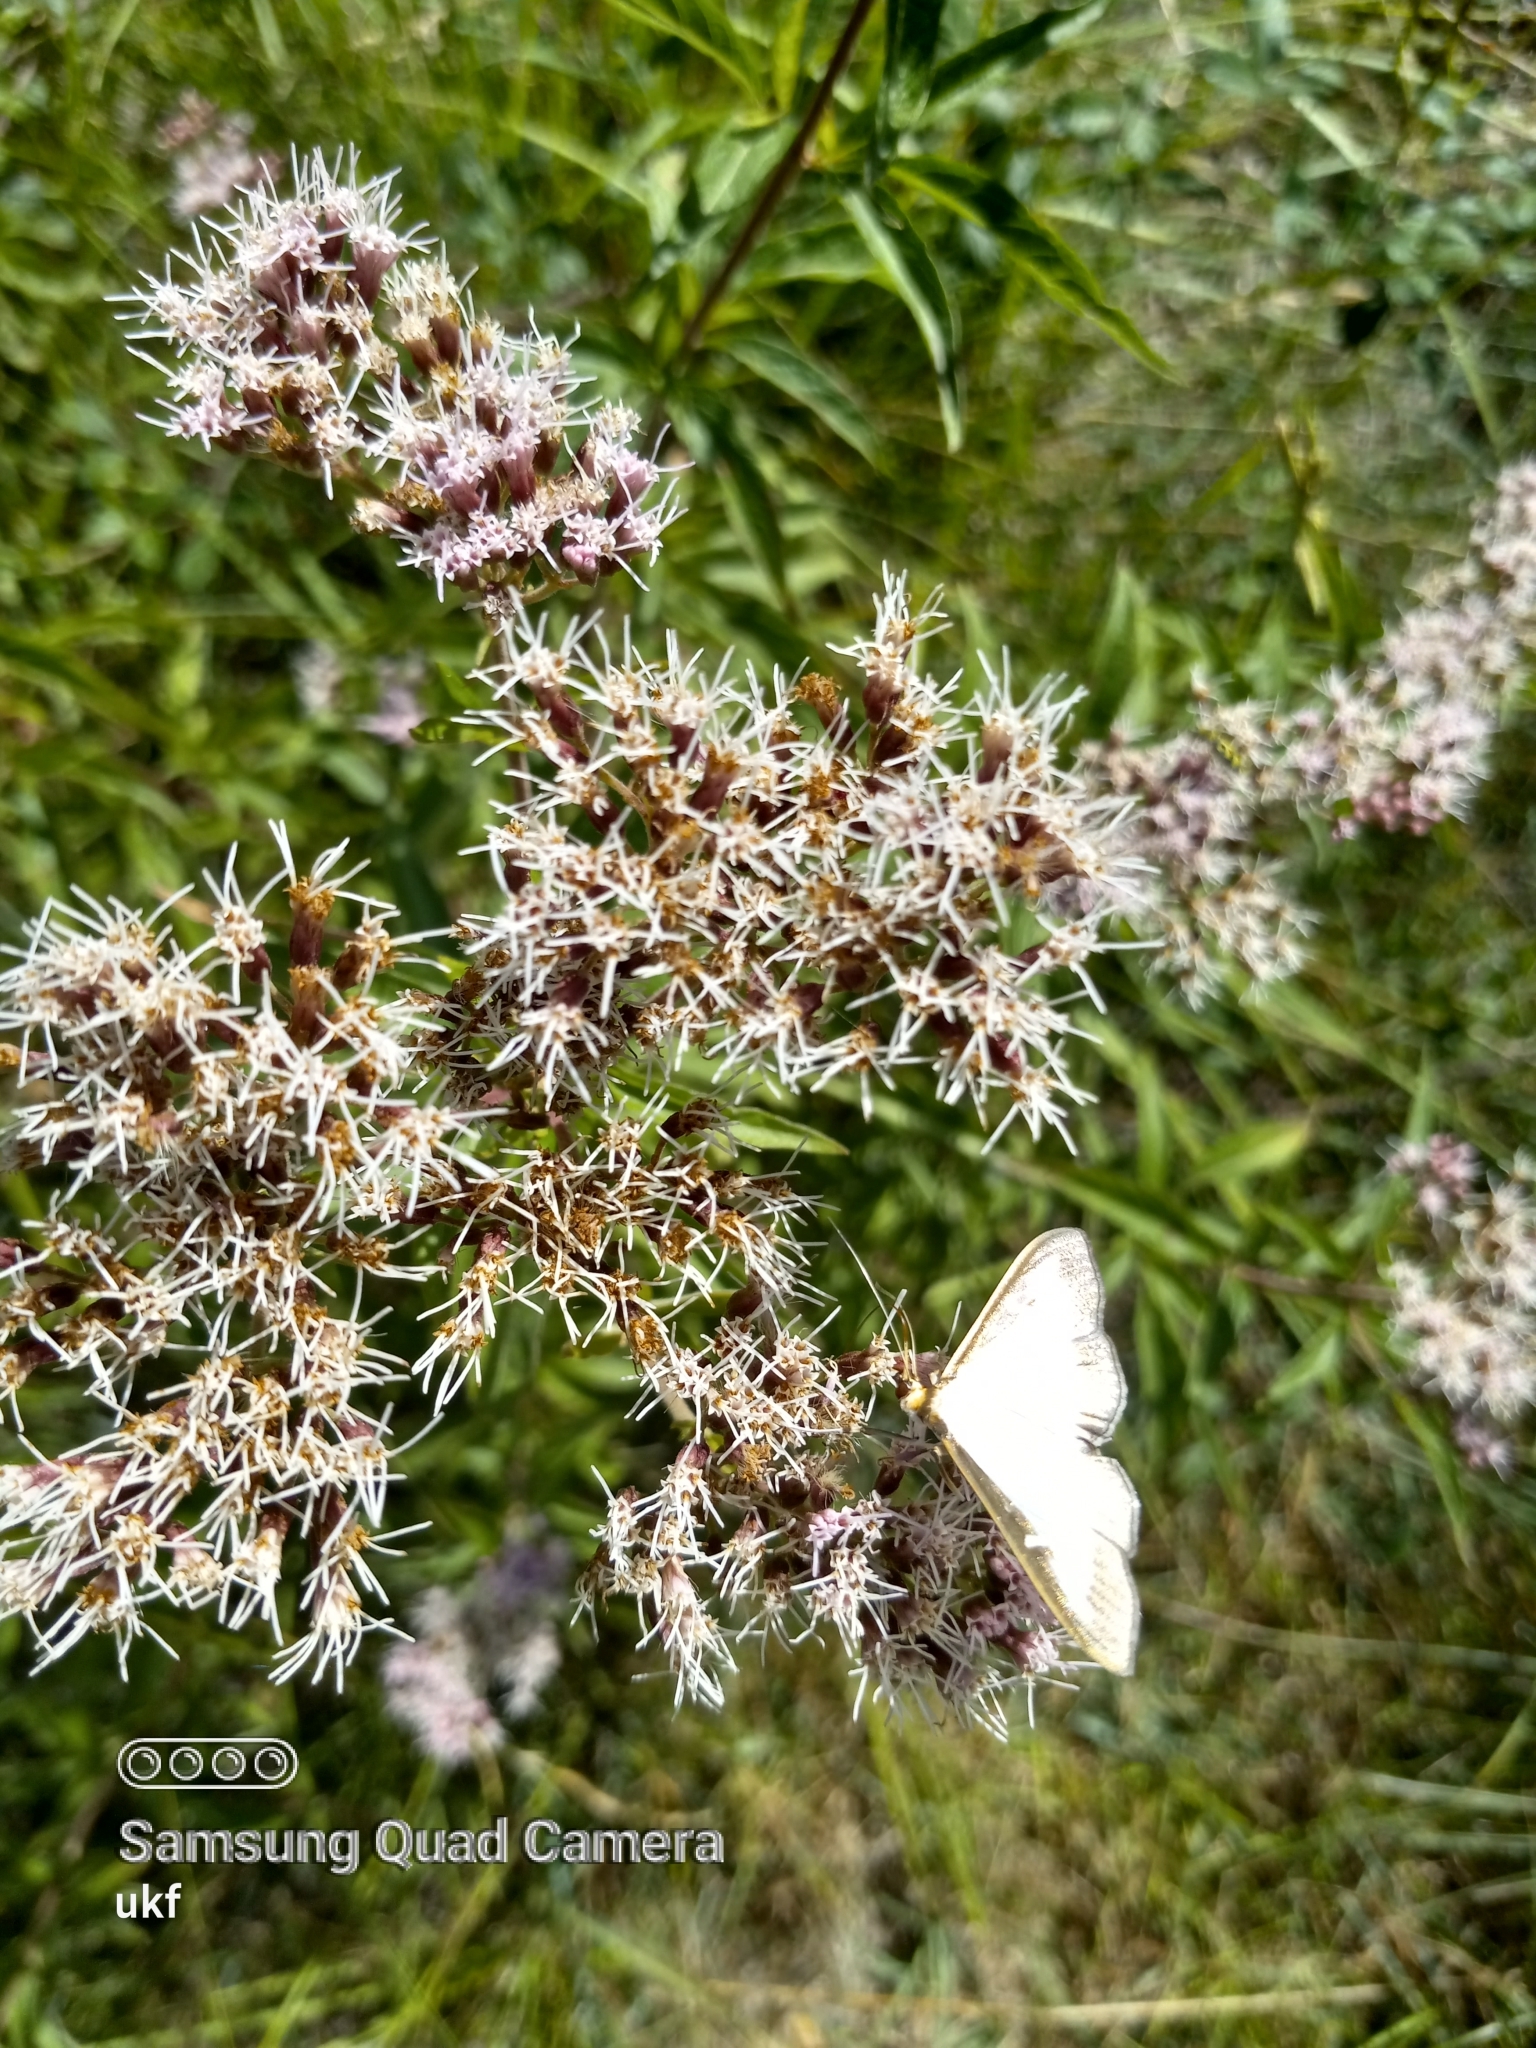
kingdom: Animalia
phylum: Arthropoda
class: Insecta
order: Lepidoptera
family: Crambidae
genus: Cydalima
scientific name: Cydalima perspectalis
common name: Box tree moth
